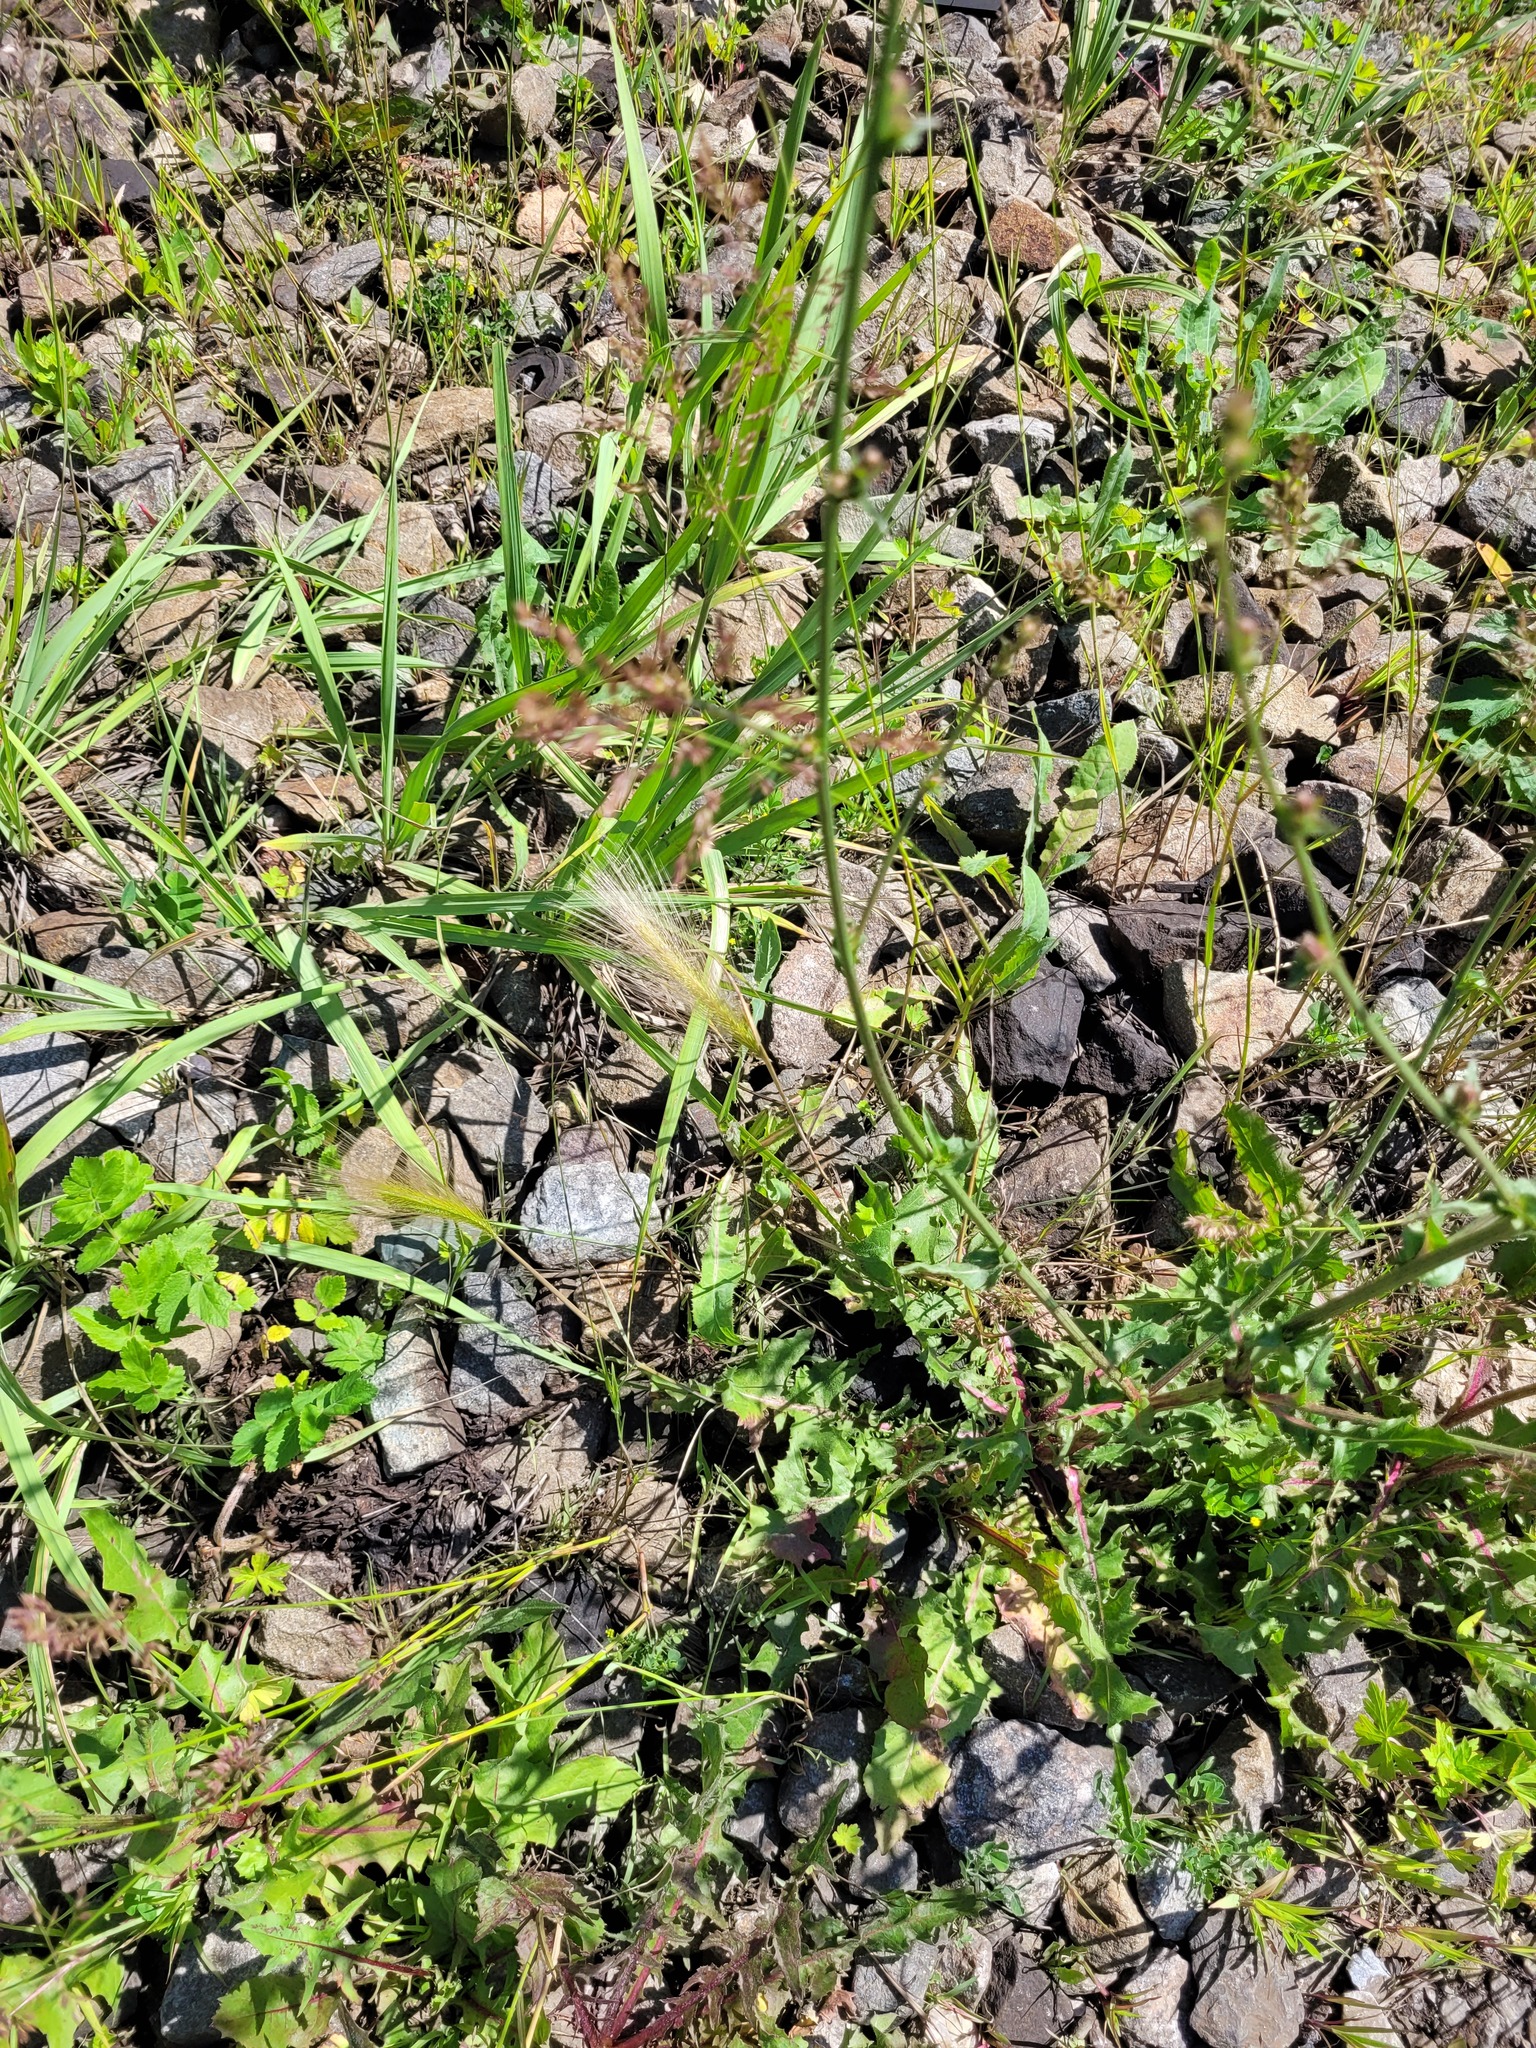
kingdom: Plantae
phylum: Tracheophyta
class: Liliopsida
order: Poales
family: Poaceae
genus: Hordeum
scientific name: Hordeum jubatum
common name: Foxtail barley
